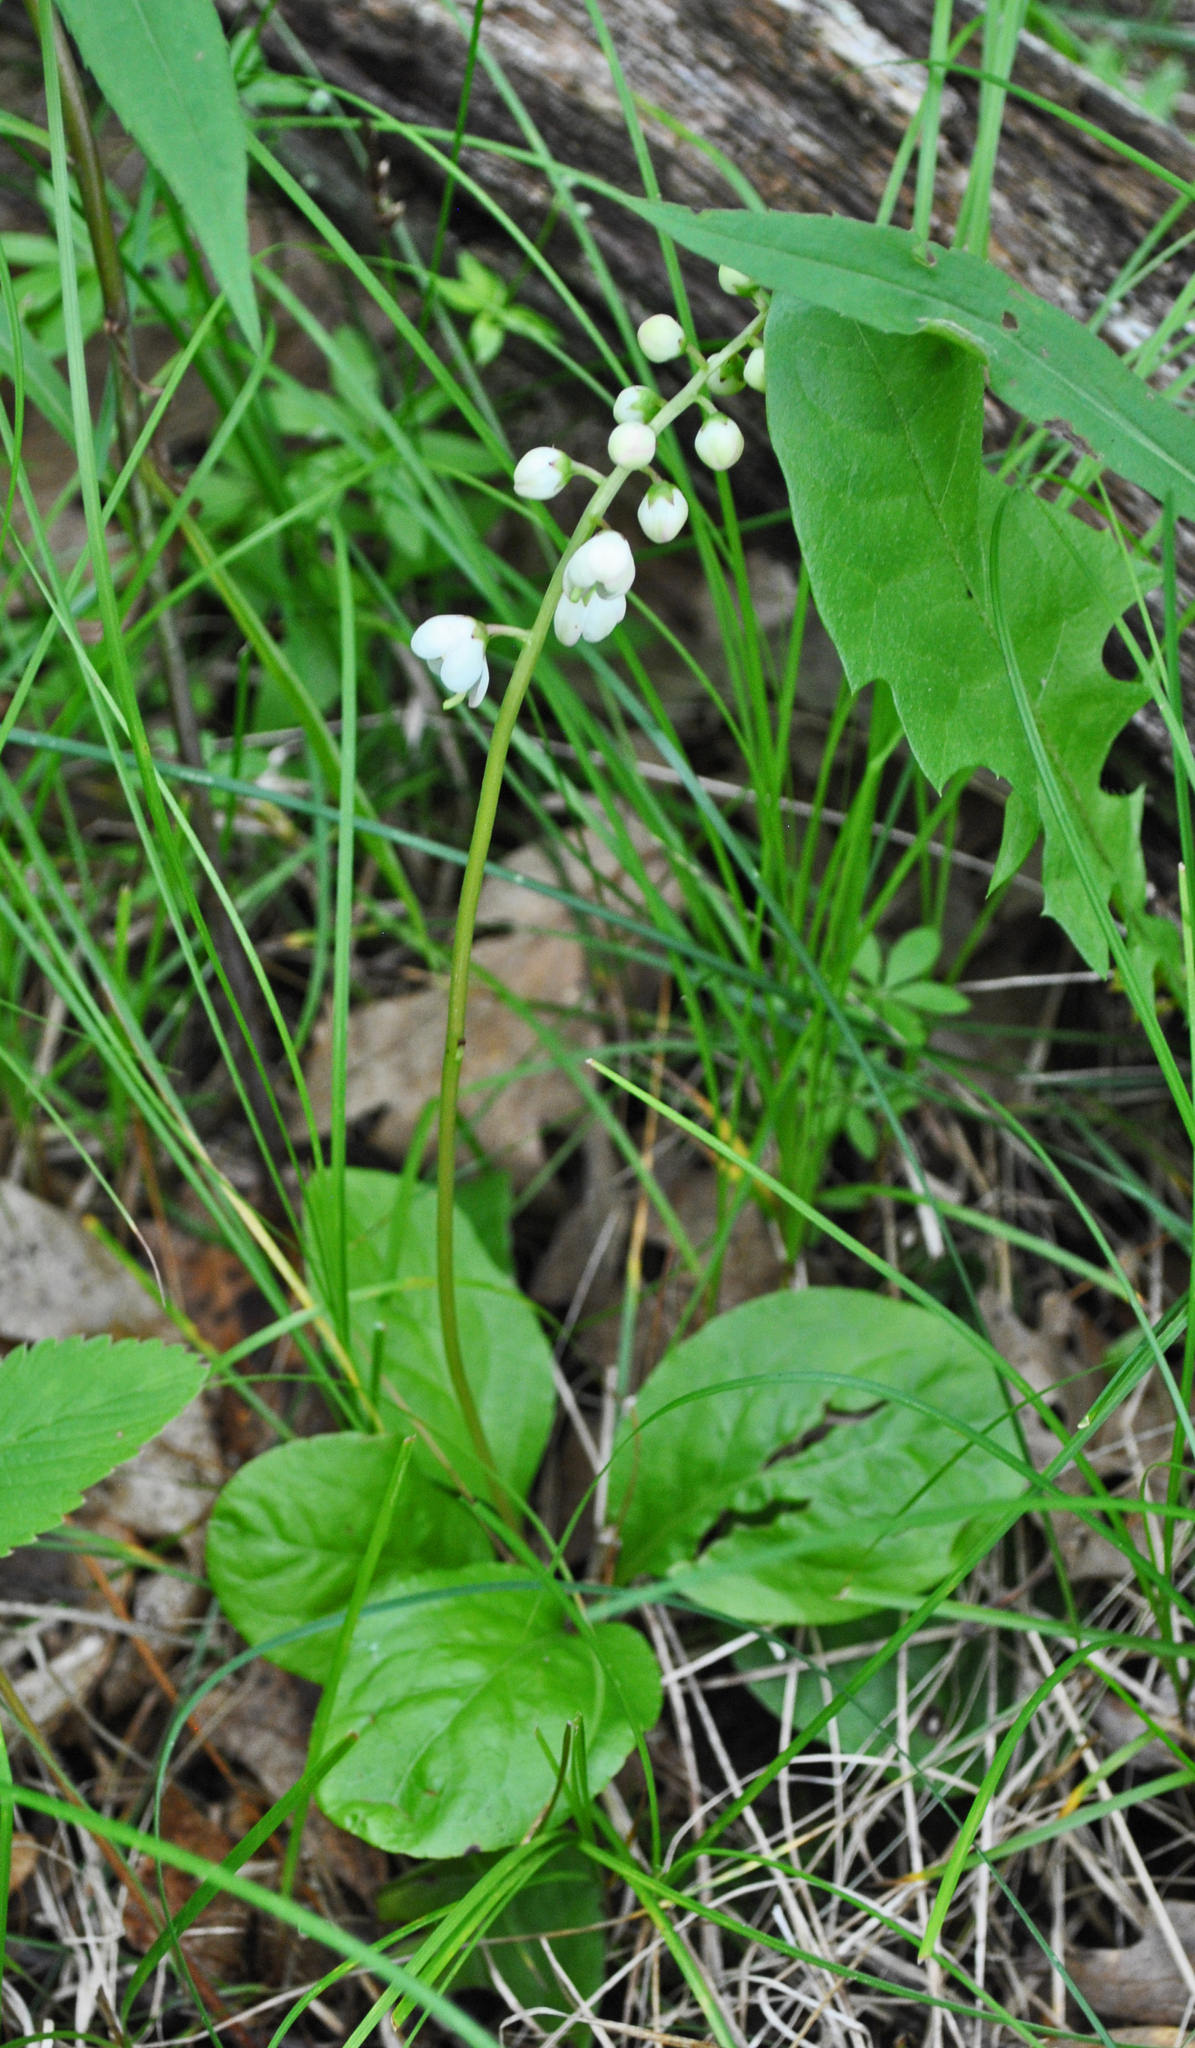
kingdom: Plantae
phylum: Tracheophyta
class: Magnoliopsida
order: Ericales
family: Ericaceae
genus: Pyrola
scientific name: Pyrola elliptica
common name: Shinleaf
